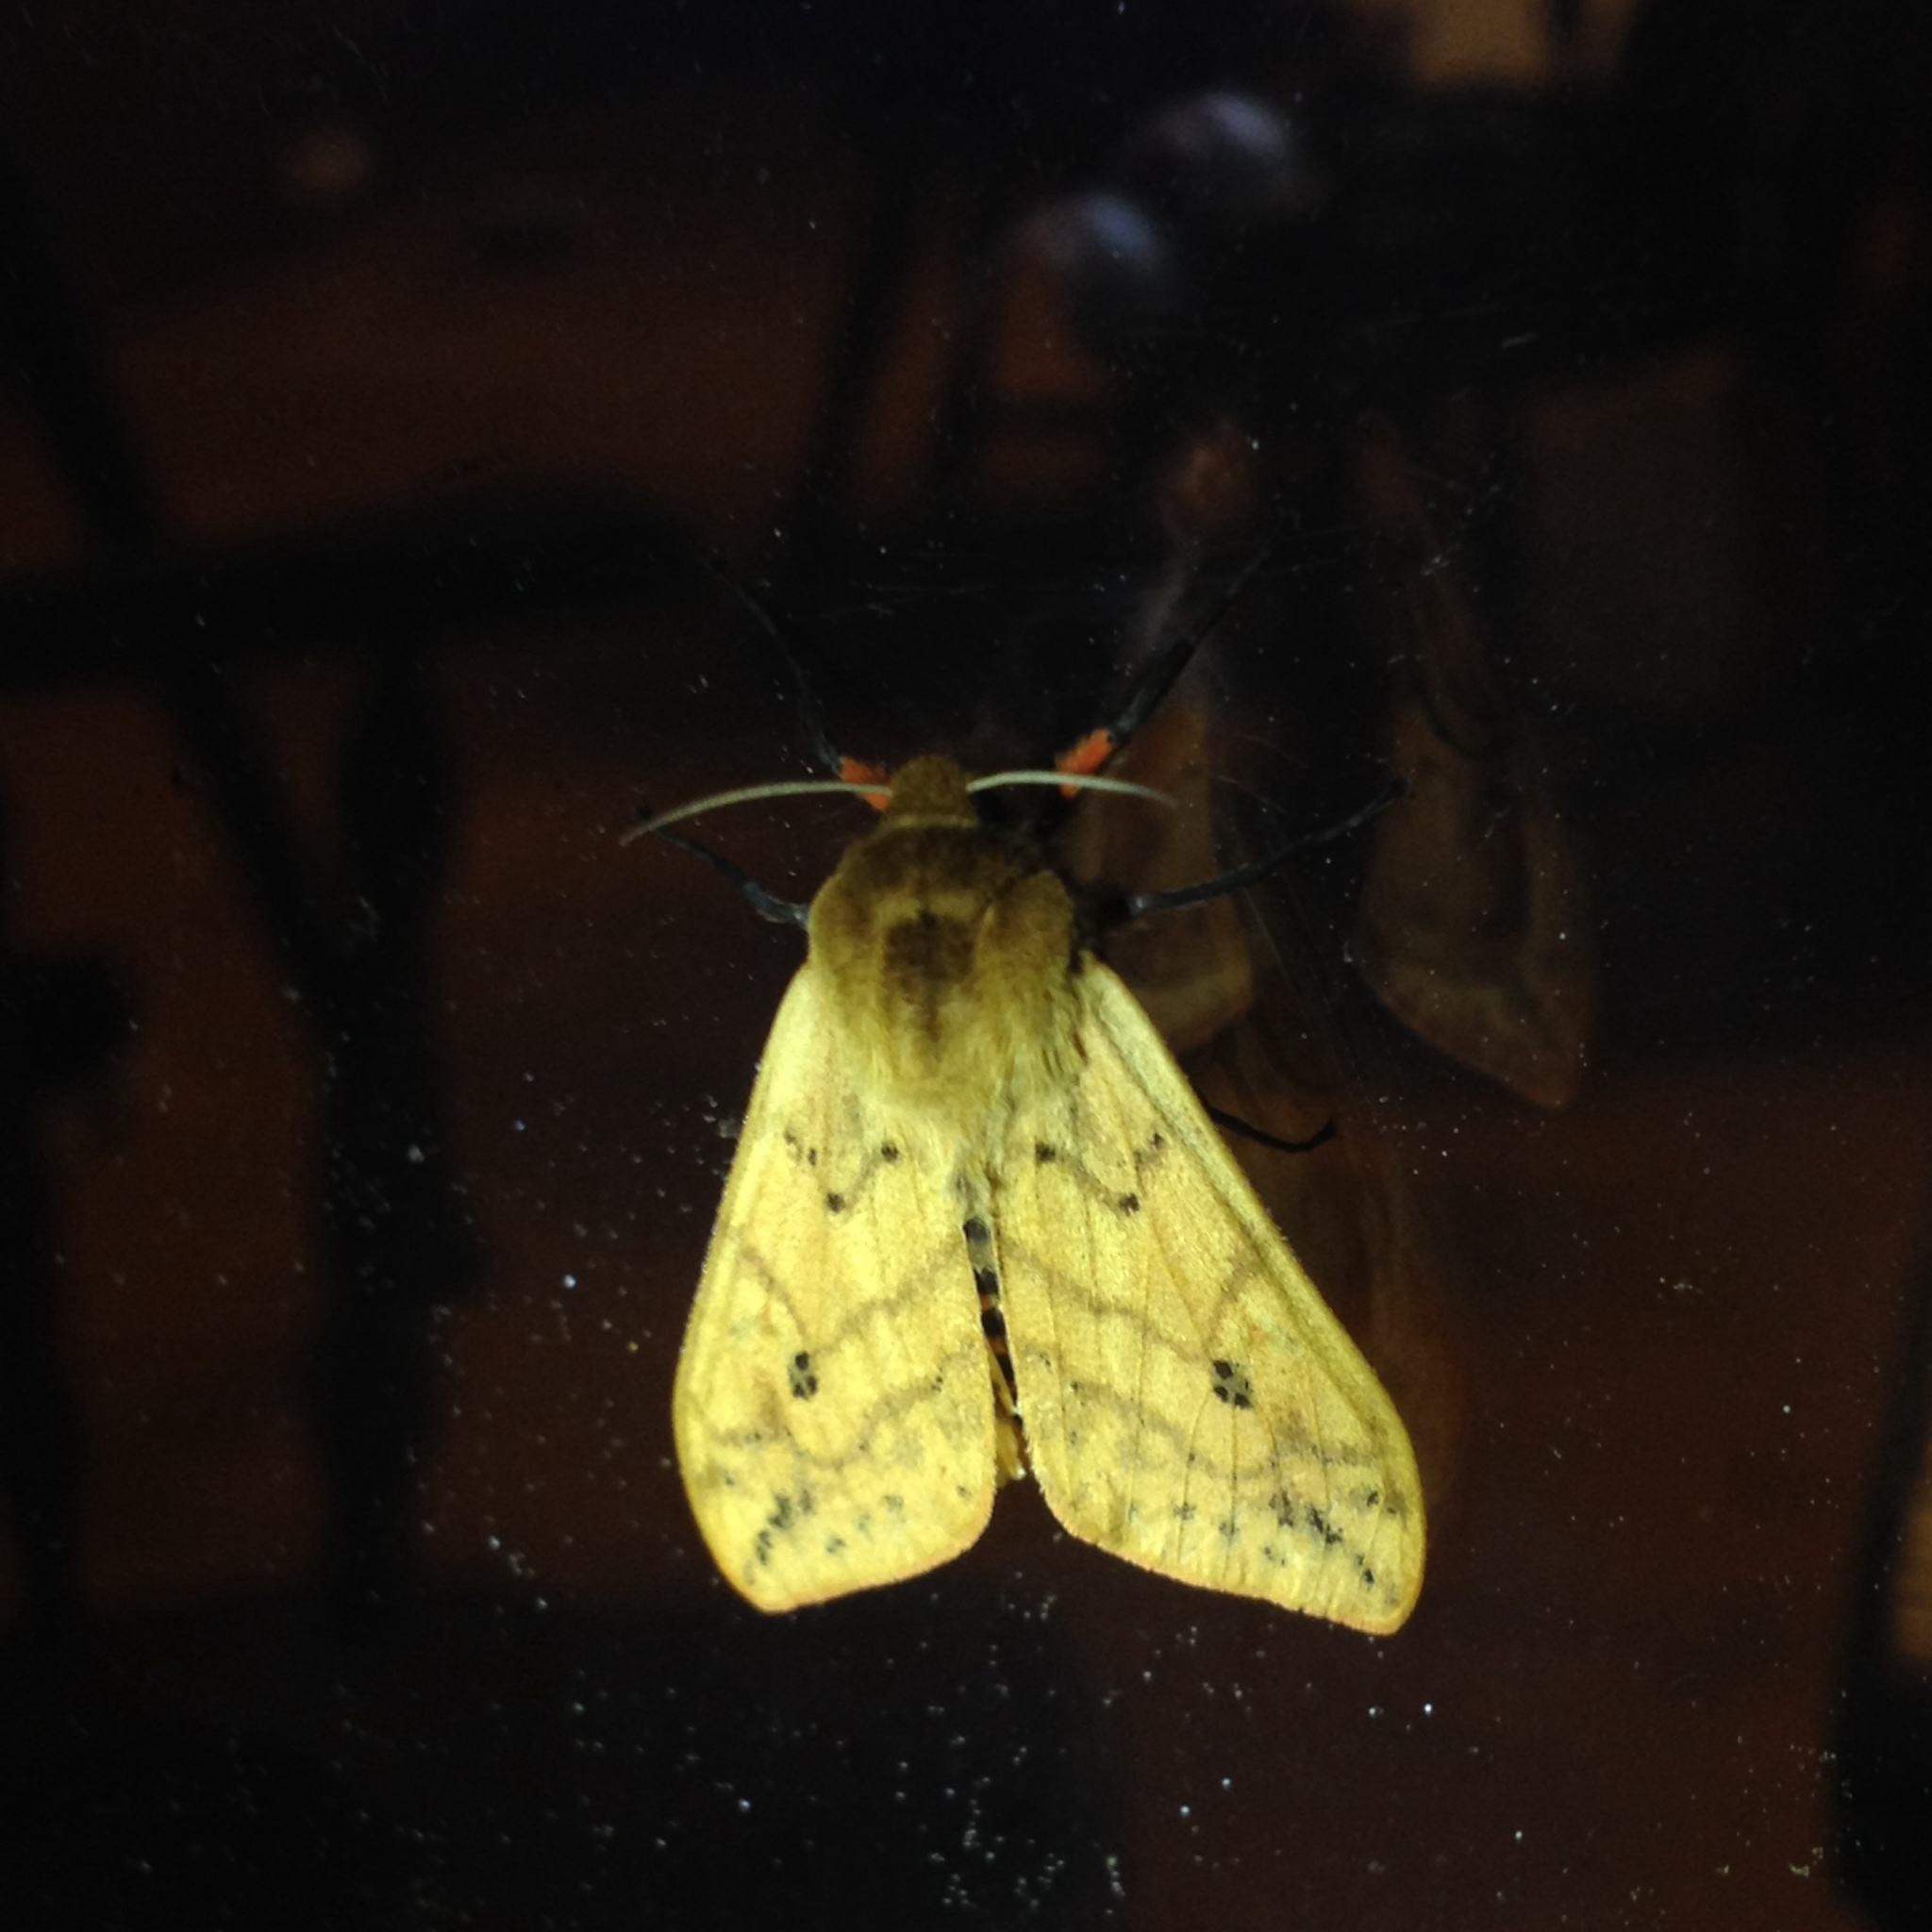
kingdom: Animalia
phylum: Arthropoda
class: Insecta
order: Lepidoptera
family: Erebidae
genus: Pyrrharctia
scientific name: Pyrrharctia isabella
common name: Isabella tiger moth
